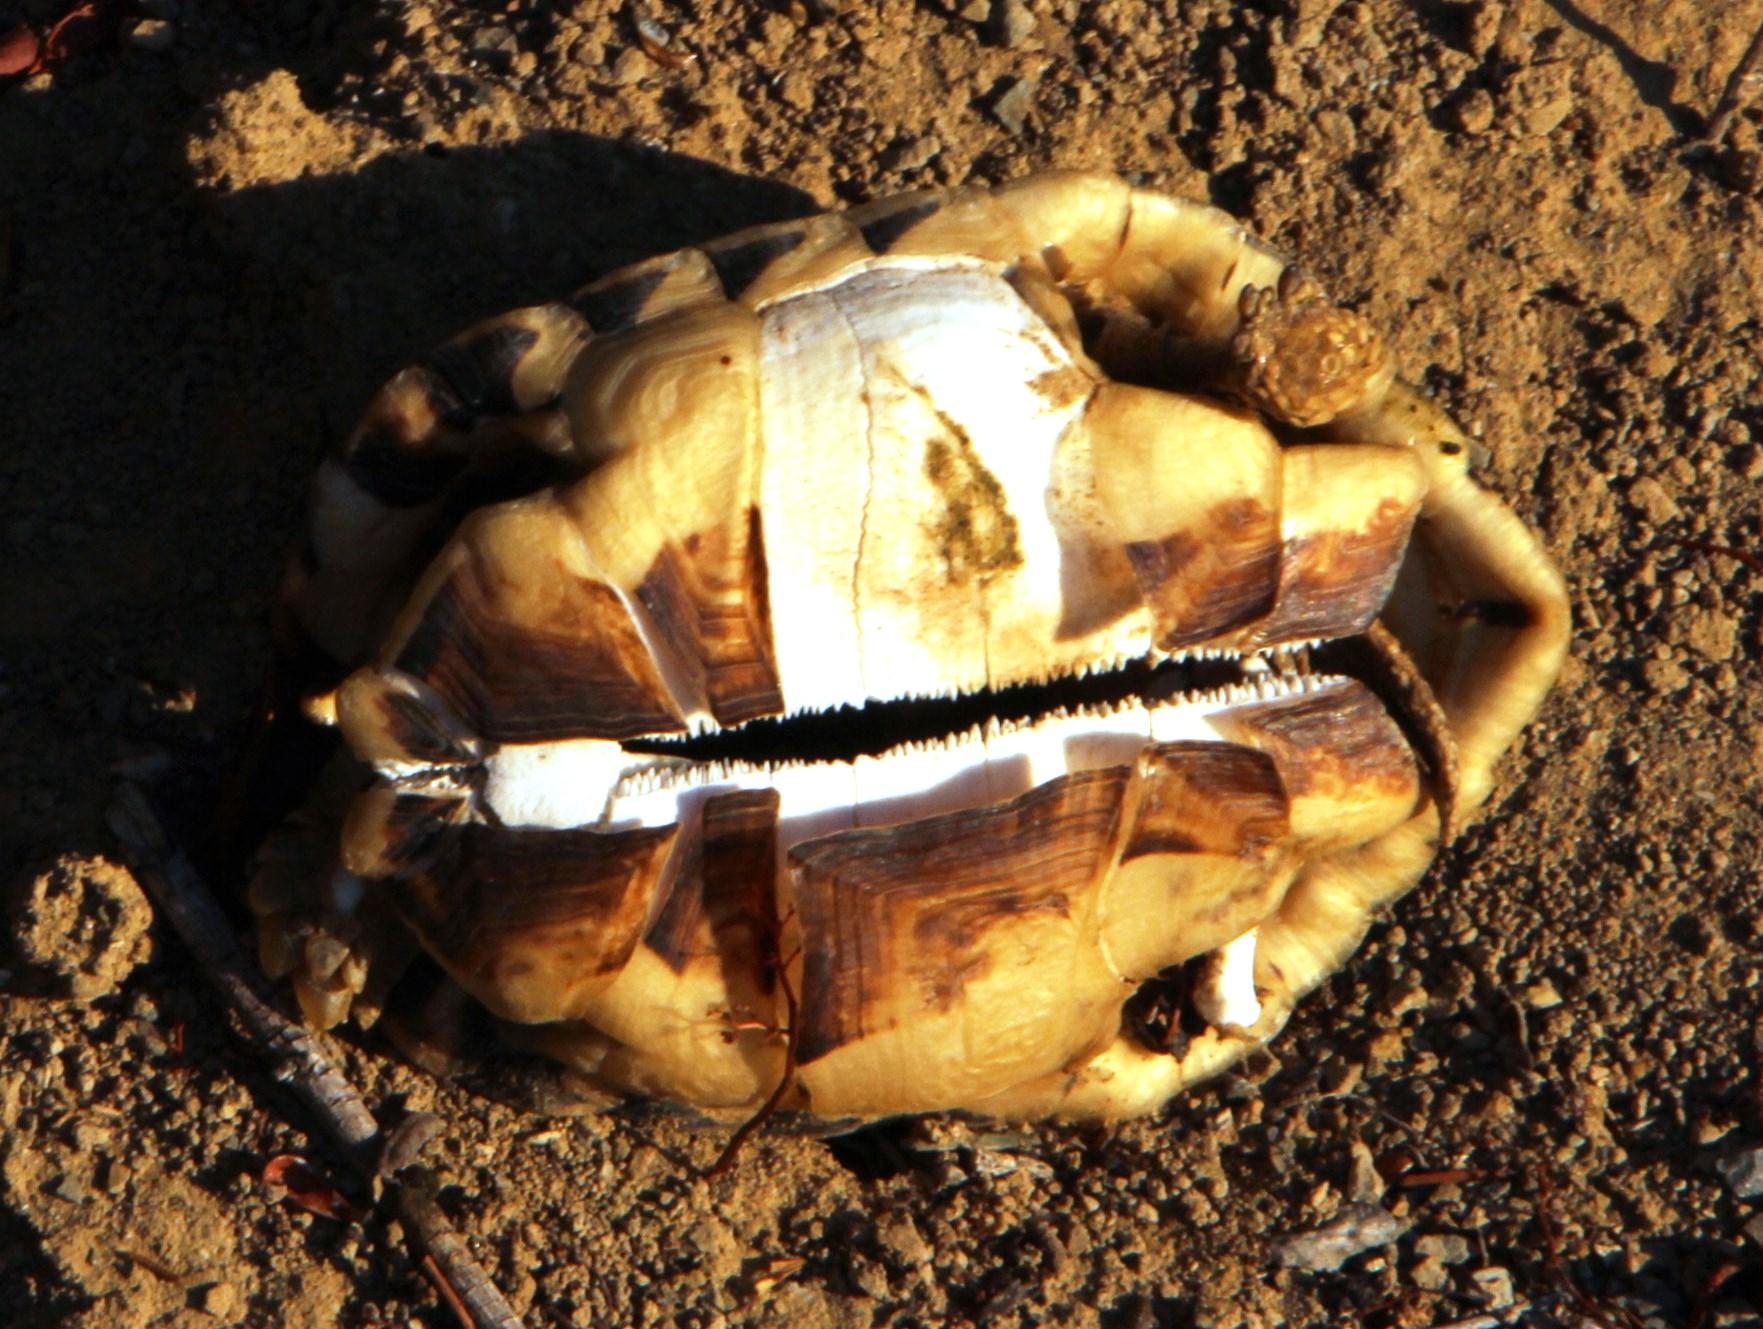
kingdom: Animalia
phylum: Chordata
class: Testudines
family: Testudinidae
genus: Psammobates
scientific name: Psammobates tentorius
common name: Tent tortoise
